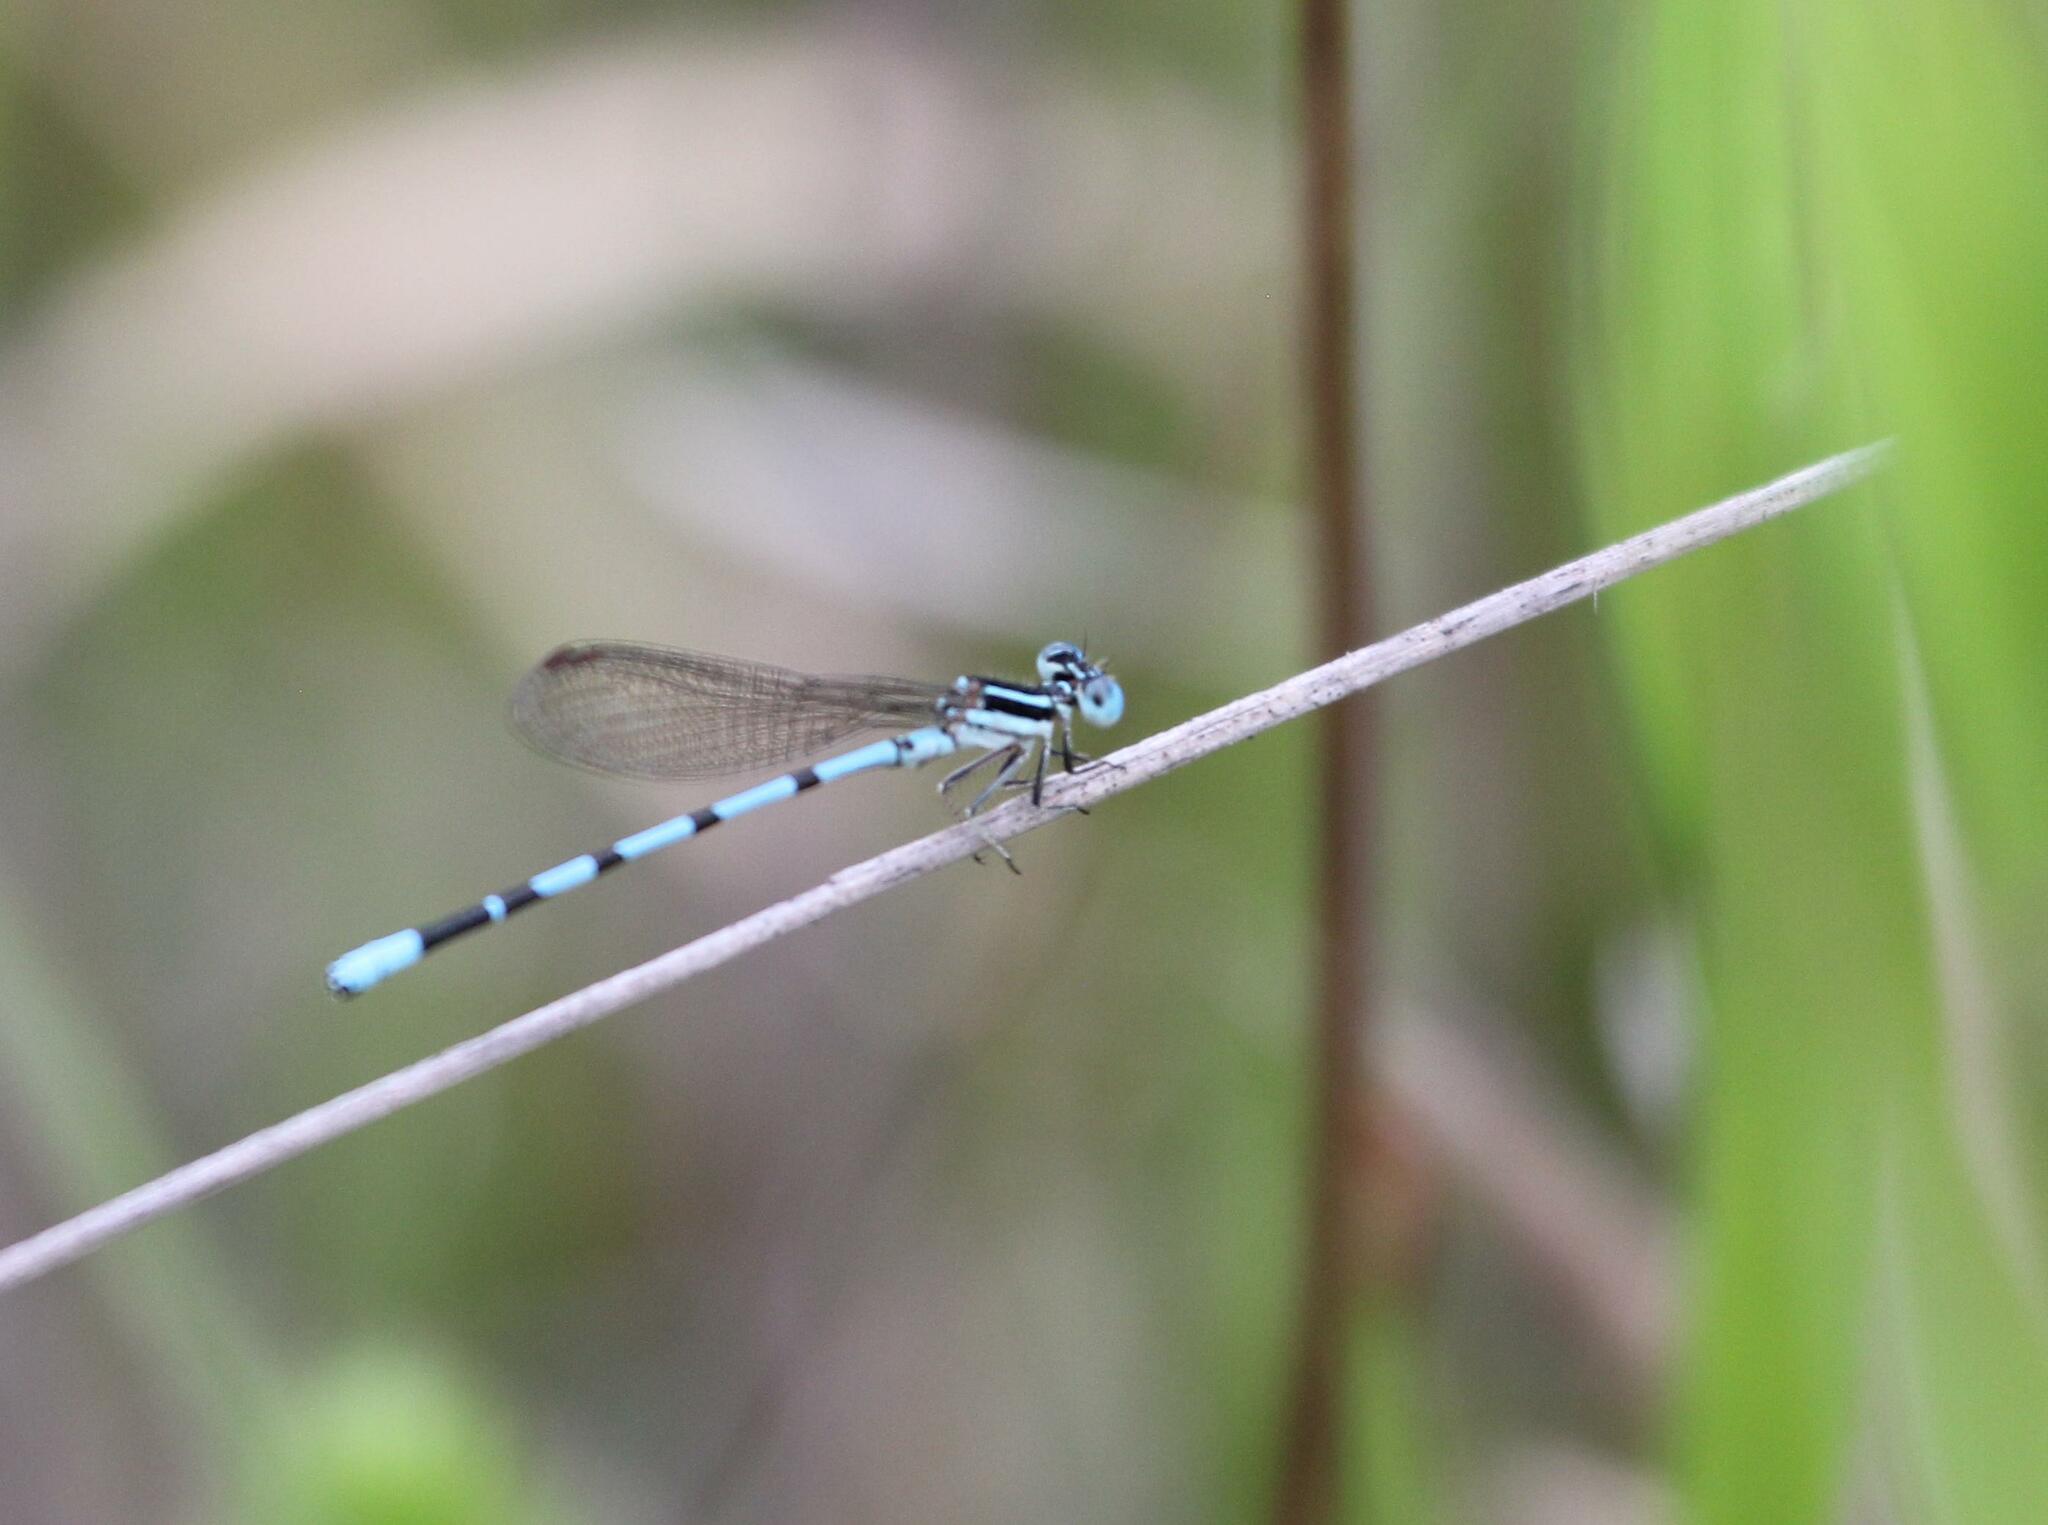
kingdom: Animalia
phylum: Arthropoda
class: Insecta
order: Odonata
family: Coenagrionidae
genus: Argia
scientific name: Argia bipunctulata
